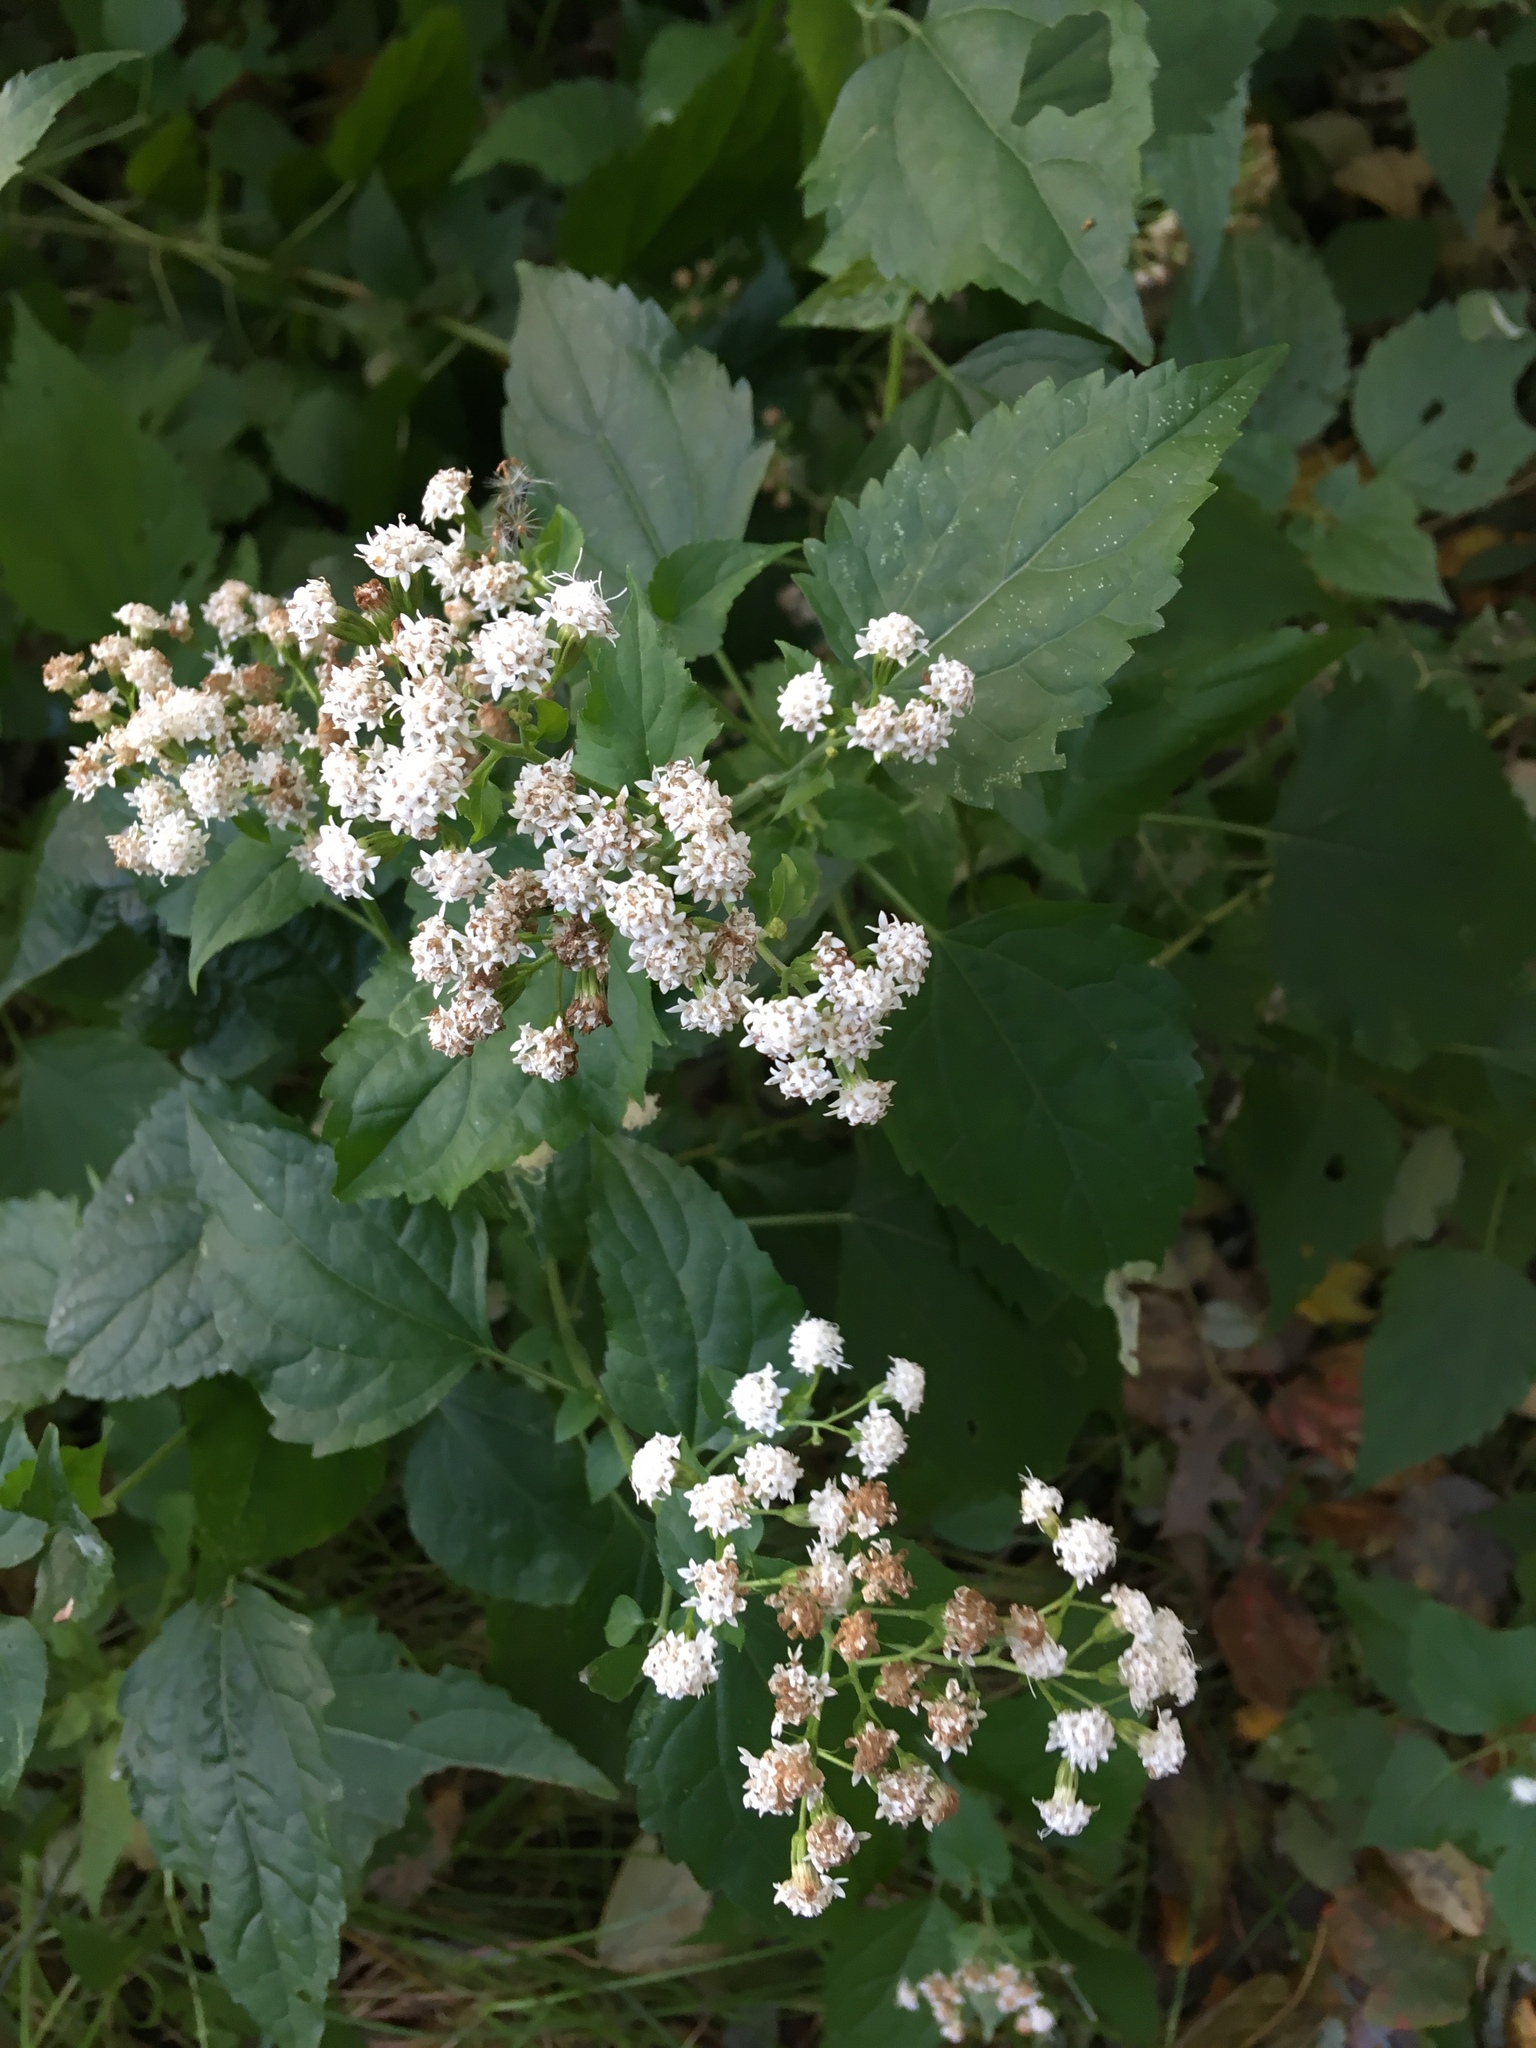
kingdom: Plantae
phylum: Tracheophyta
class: Magnoliopsida
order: Asterales
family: Asteraceae
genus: Ageratina
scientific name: Ageratina altissima
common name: White snakeroot
